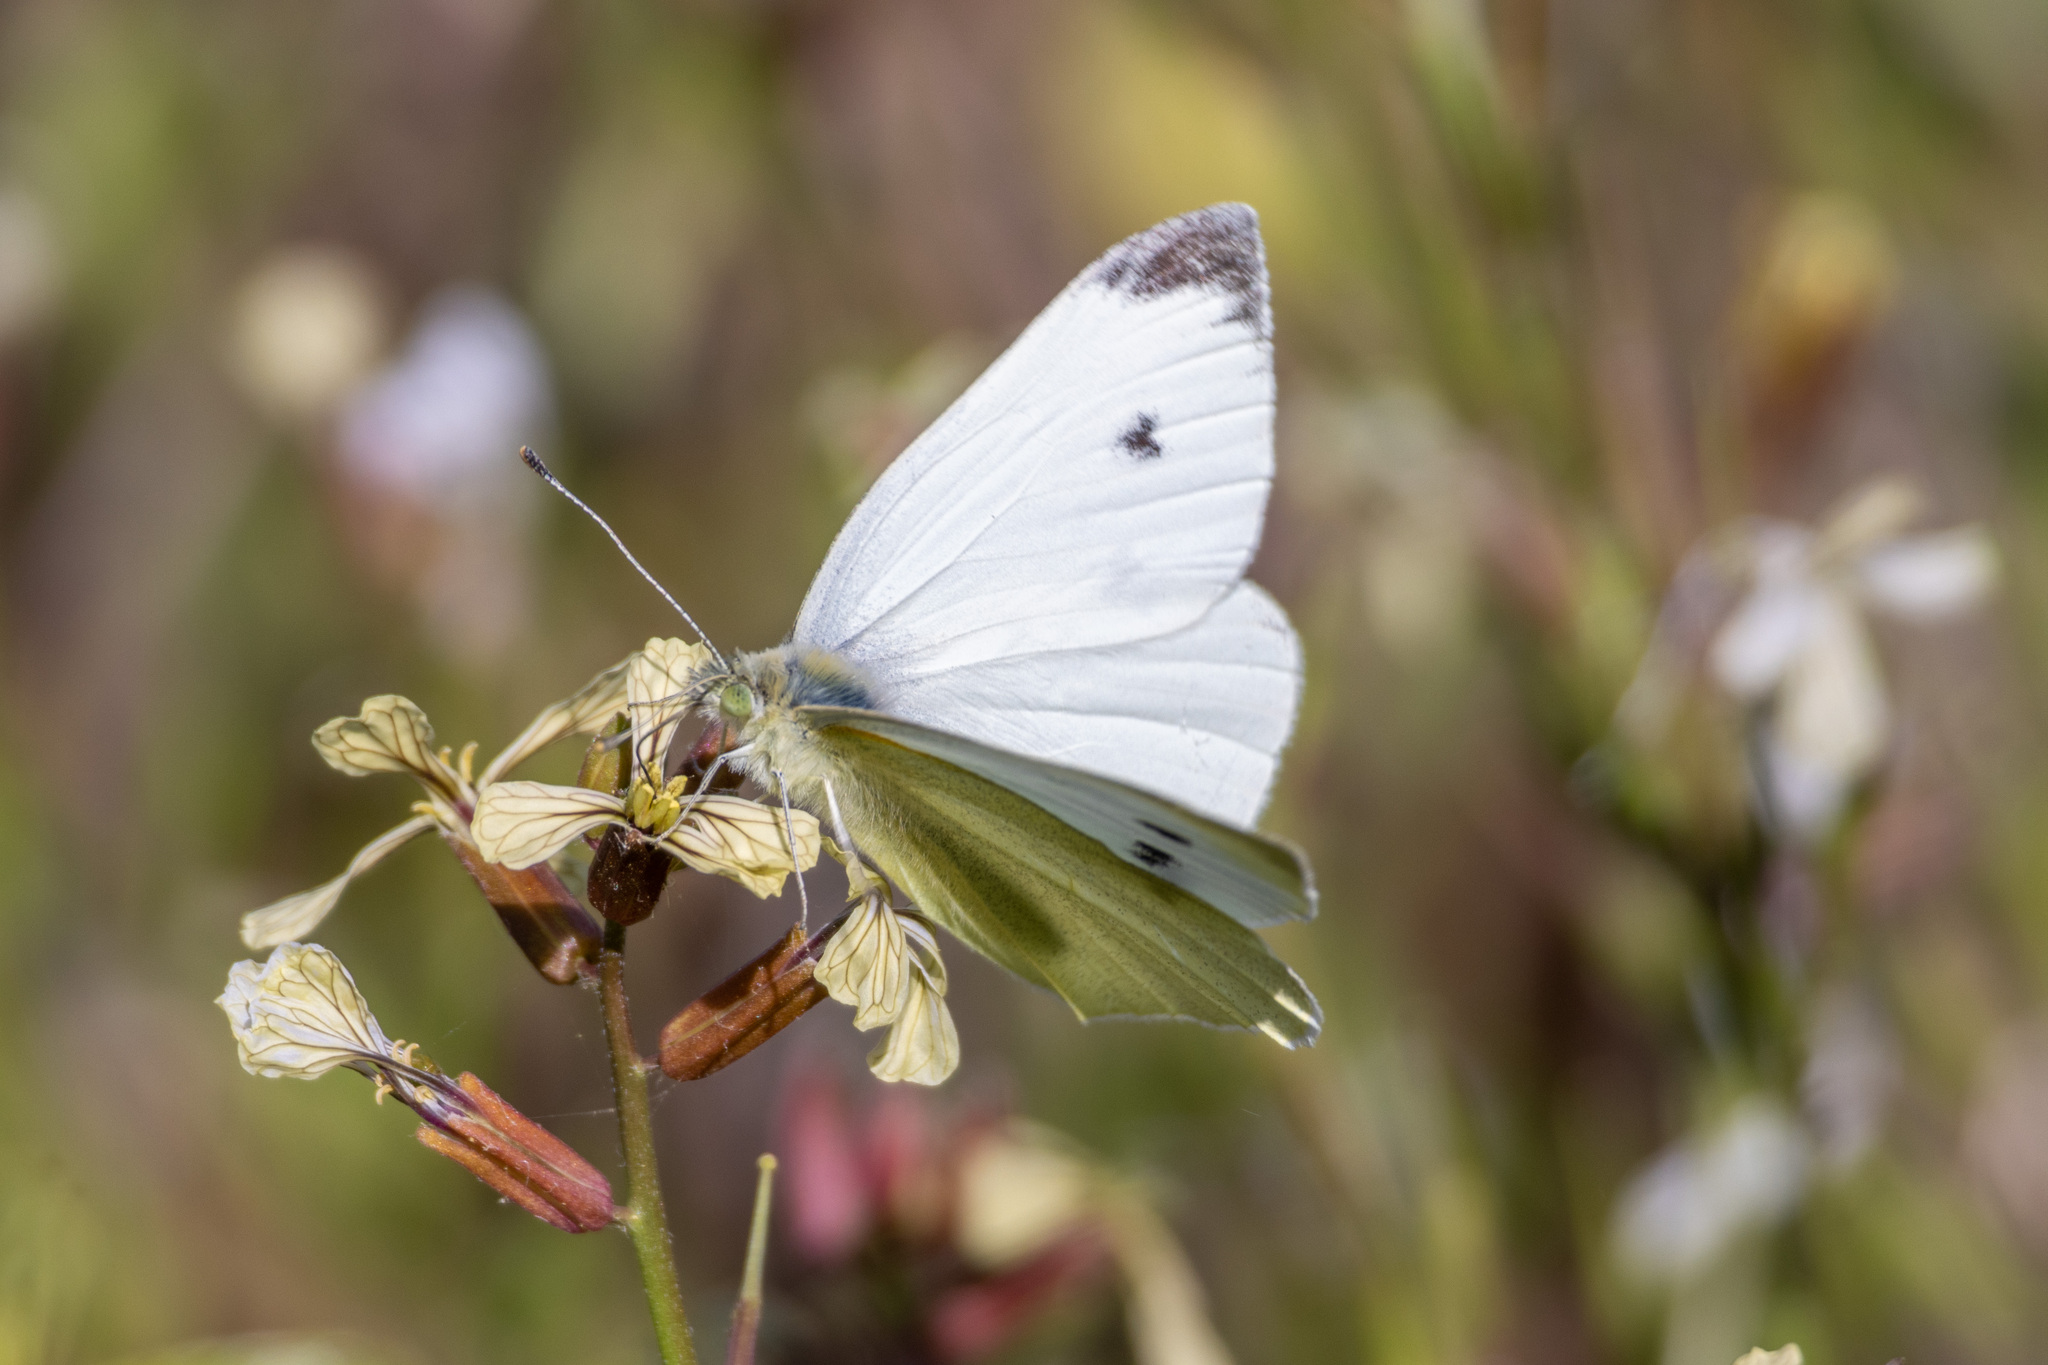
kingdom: Animalia
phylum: Arthropoda
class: Insecta
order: Lepidoptera
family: Pieridae
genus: Pieris
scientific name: Pieris rapae
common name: Small white
